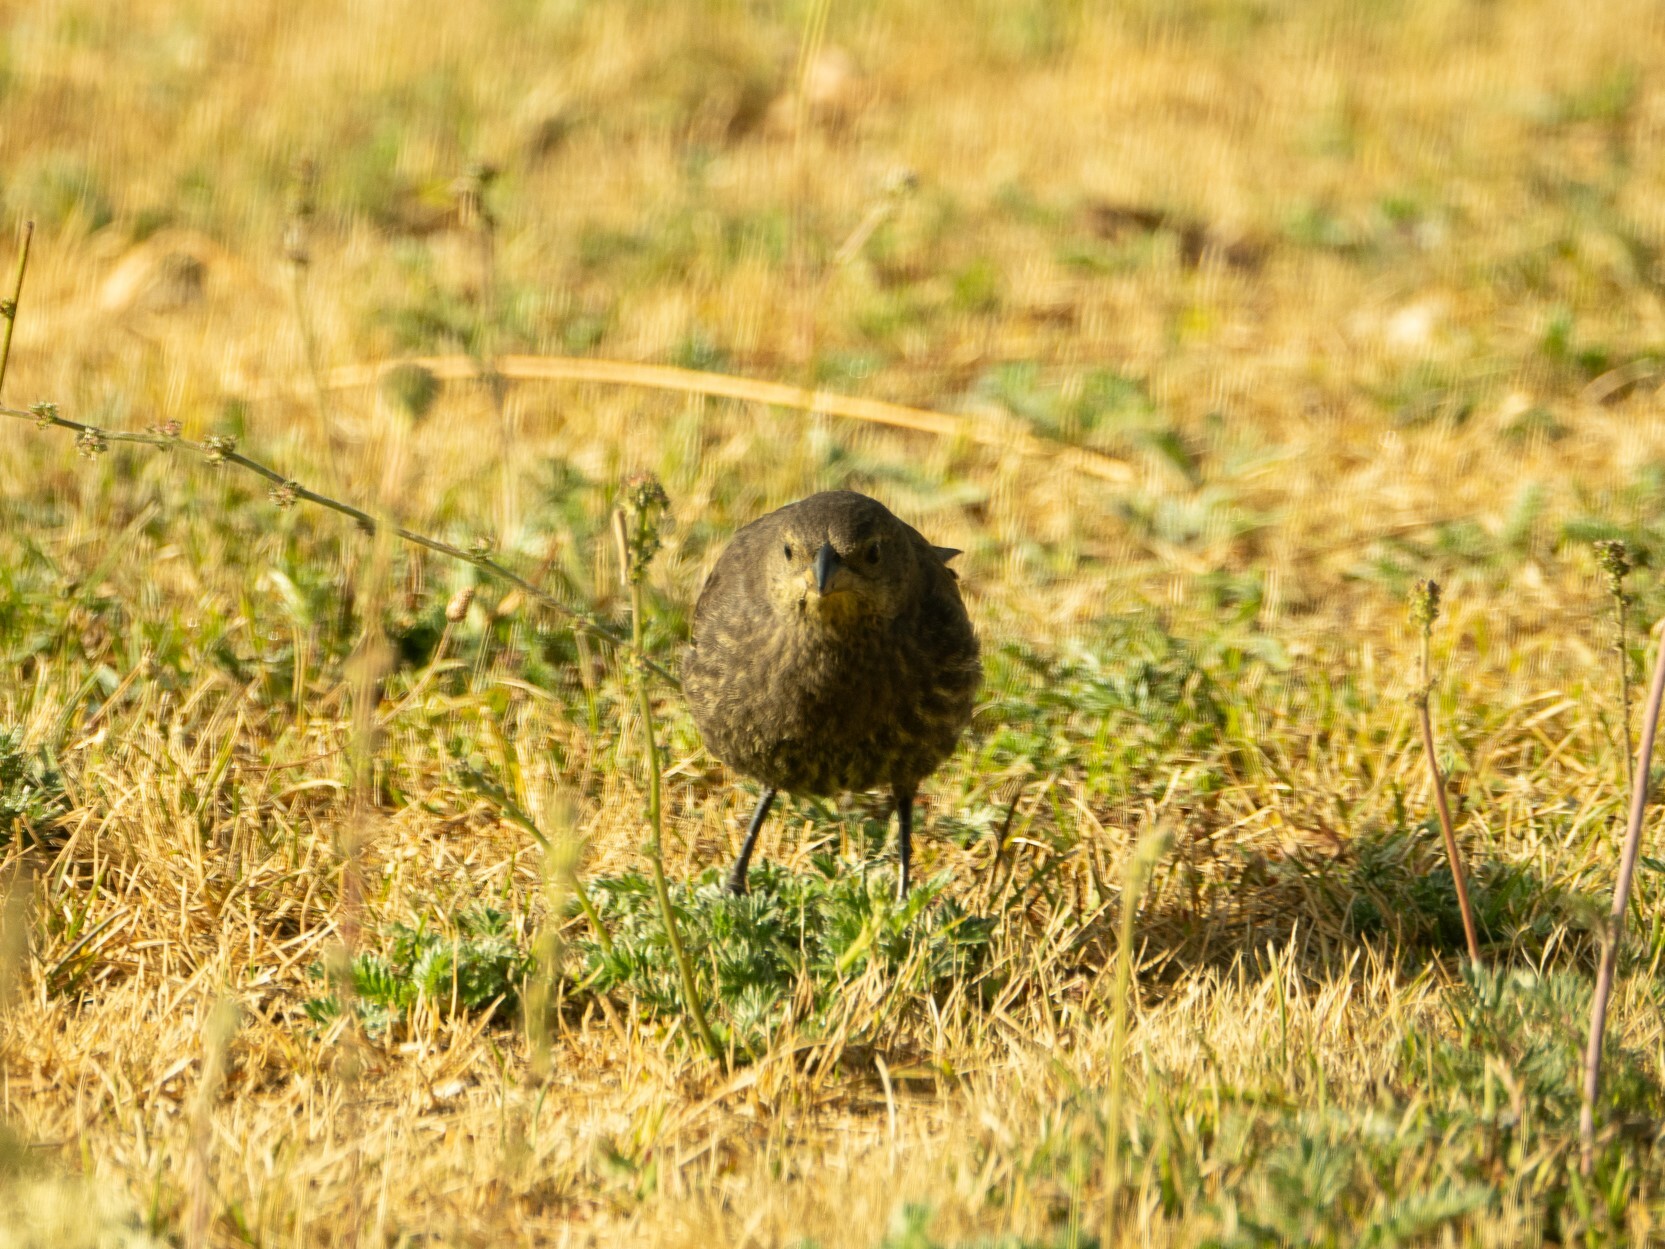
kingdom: Animalia
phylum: Chordata
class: Aves
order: Passeriformes
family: Icteridae
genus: Molothrus
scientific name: Molothrus bonariensis
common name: Shiny cowbird
